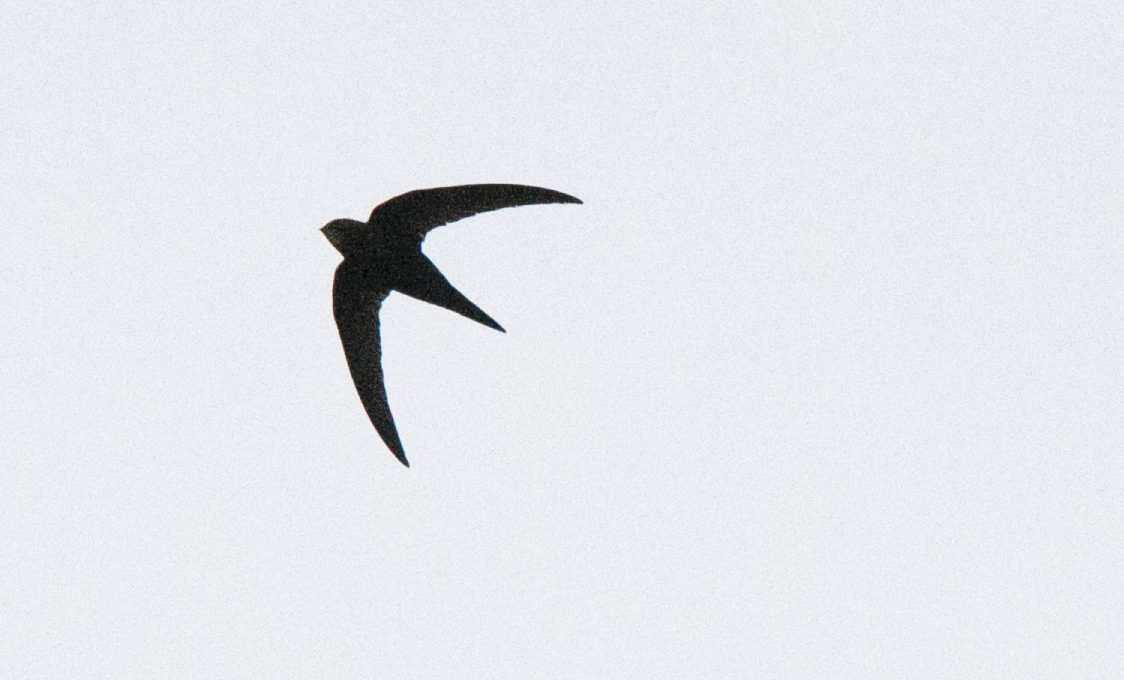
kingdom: Animalia
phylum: Chordata
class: Aves
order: Apodiformes
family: Apodidae
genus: Apus
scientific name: Apus apus
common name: Common swift
